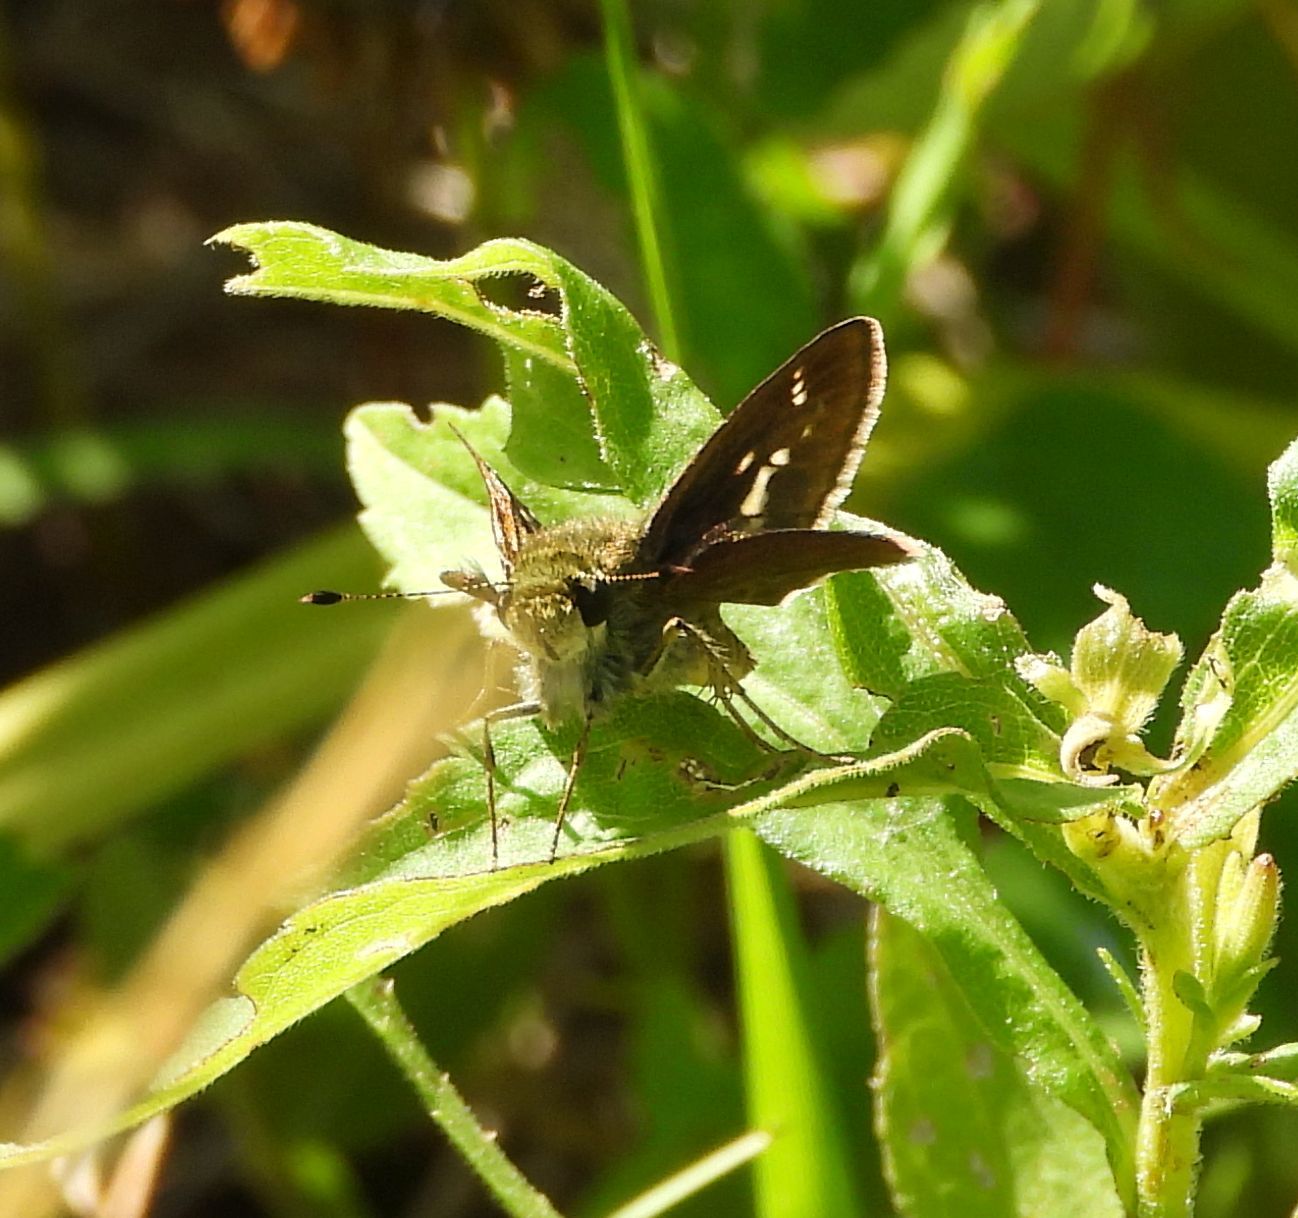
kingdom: Animalia
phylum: Arthropoda
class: Insecta
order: Lepidoptera
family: Hesperiidae
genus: Vernia
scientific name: Vernia verna
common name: Little glassywing
